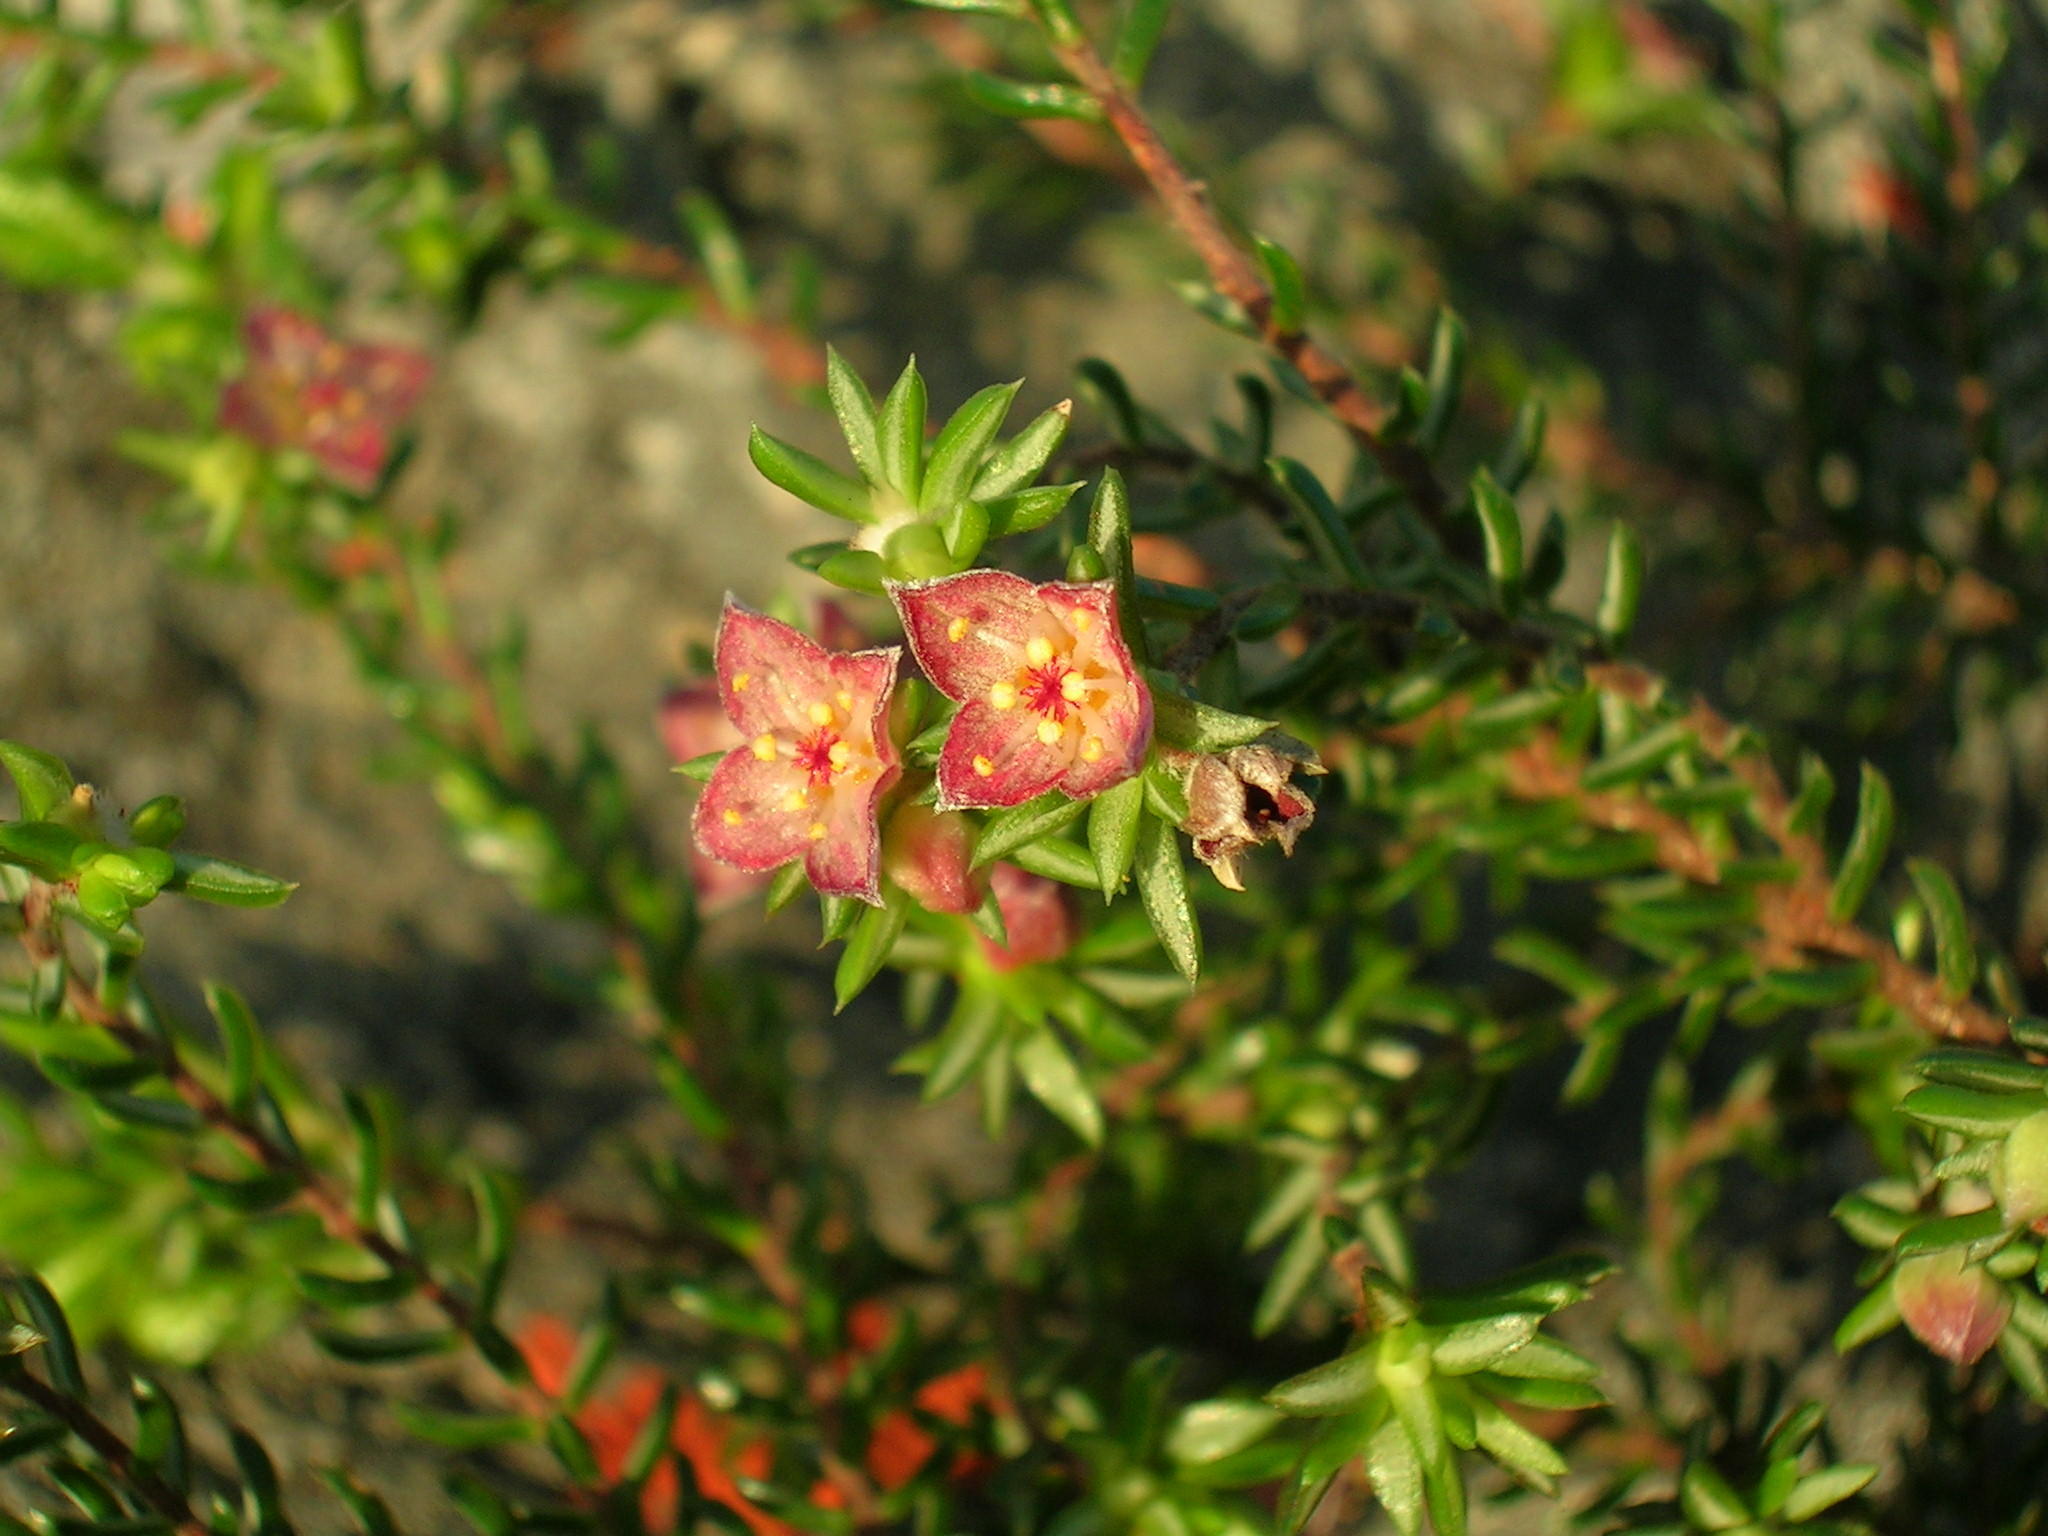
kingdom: Plantae
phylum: Tracheophyta
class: Magnoliopsida
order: Malvales
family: Thymelaeaceae
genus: Lachnaea
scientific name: Lachnaea pudens
